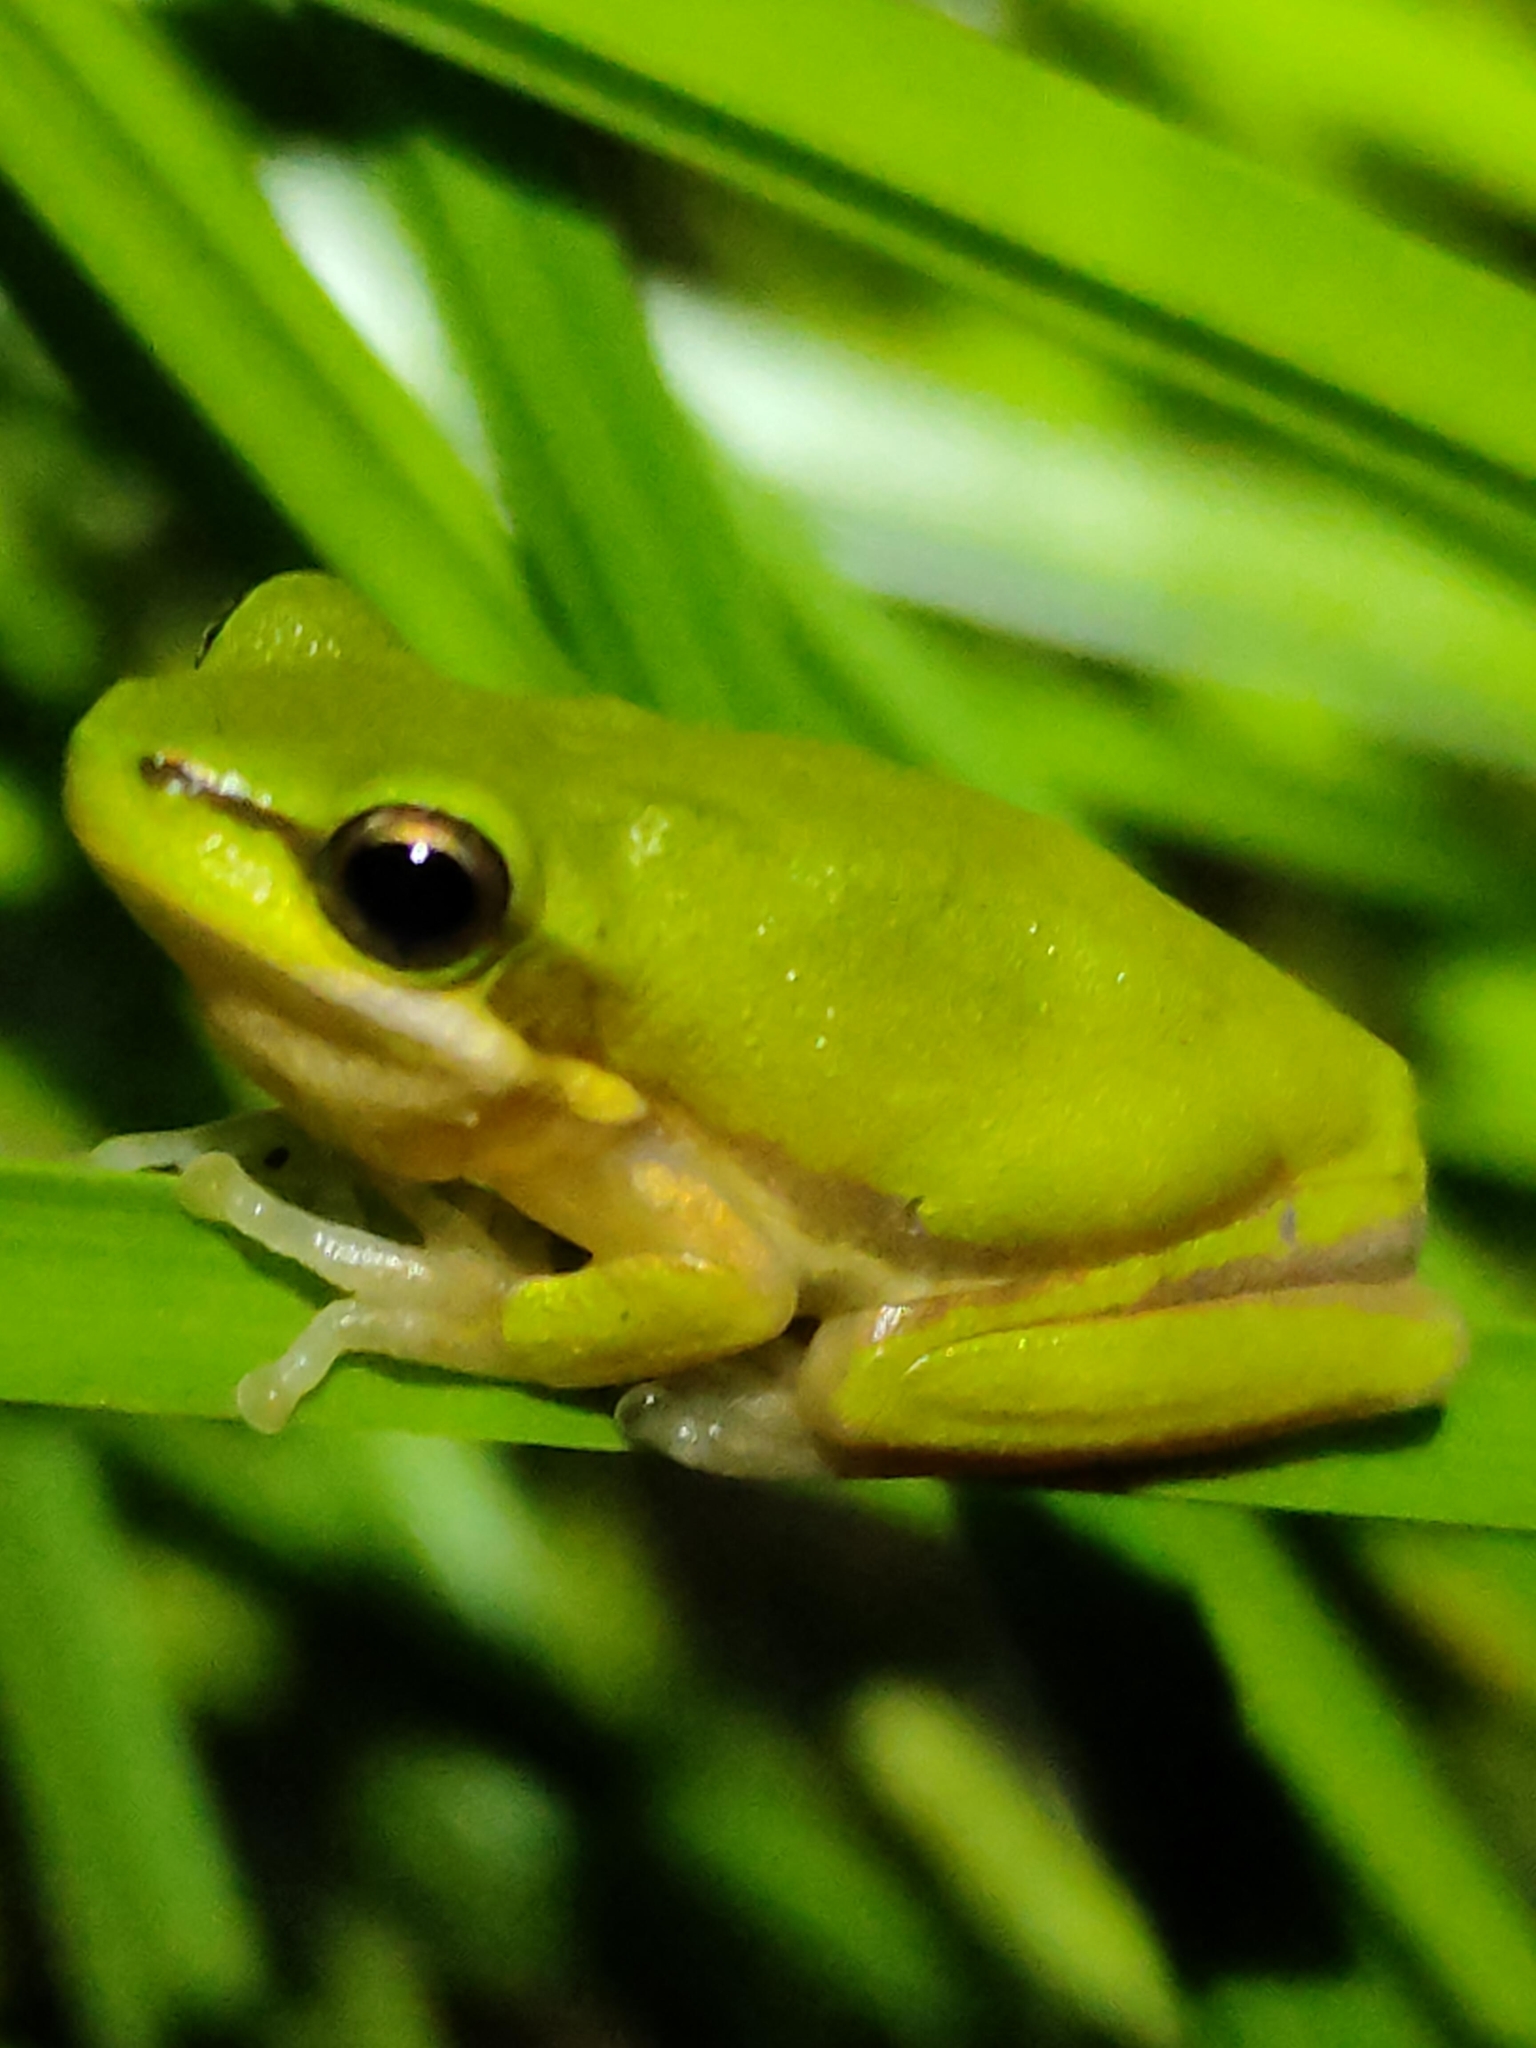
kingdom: Animalia
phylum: Chordata
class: Amphibia
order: Anura
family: Pelodryadidae
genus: Litoria
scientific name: Litoria fallax
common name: Eastern dwarf treefrog
